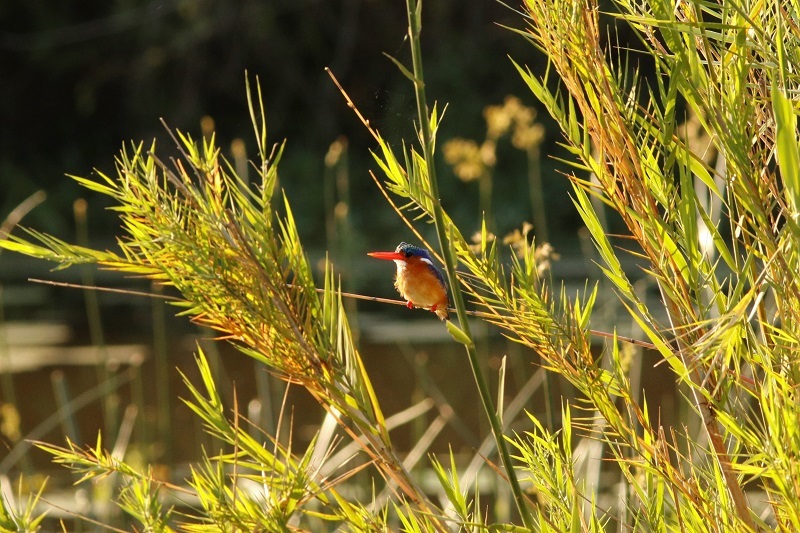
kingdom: Animalia
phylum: Chordata
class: Aves
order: Coraciiformes
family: Alcedinidae
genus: Corythornis
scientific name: Corythornis cristatus
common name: Malachite kingfisher
